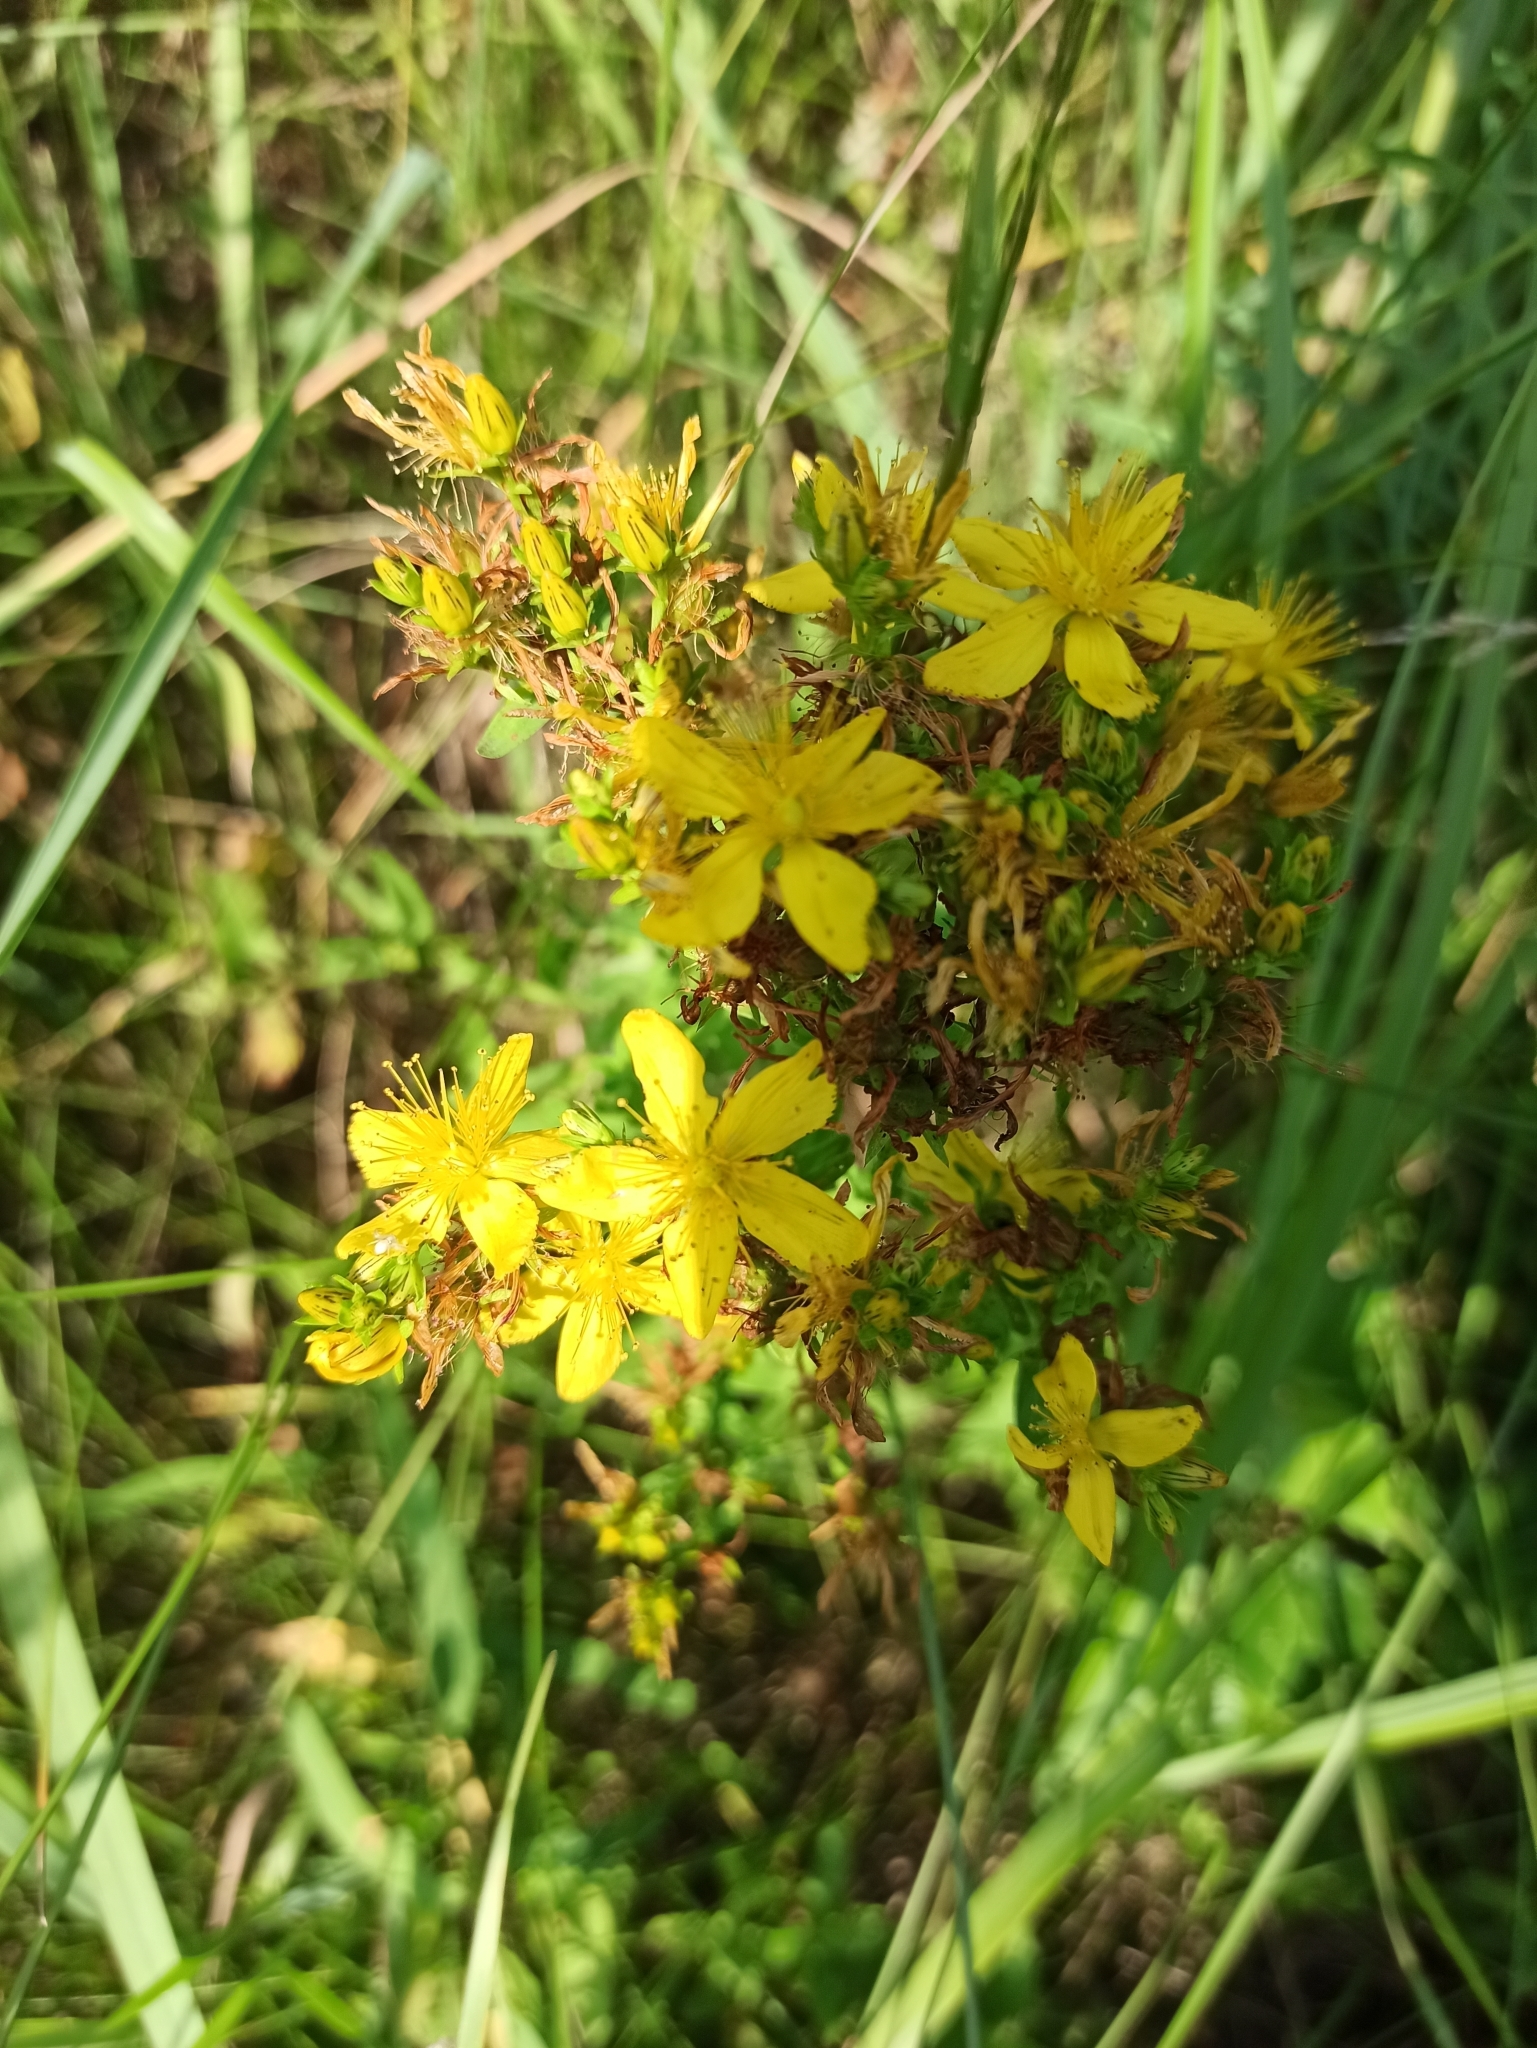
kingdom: Plantae
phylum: Tracheophyta
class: Magnoliopsida
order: Malpighiales
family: Hypericaceae
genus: Hypericum
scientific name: Hypericum perforatum
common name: Common st. johnswort
